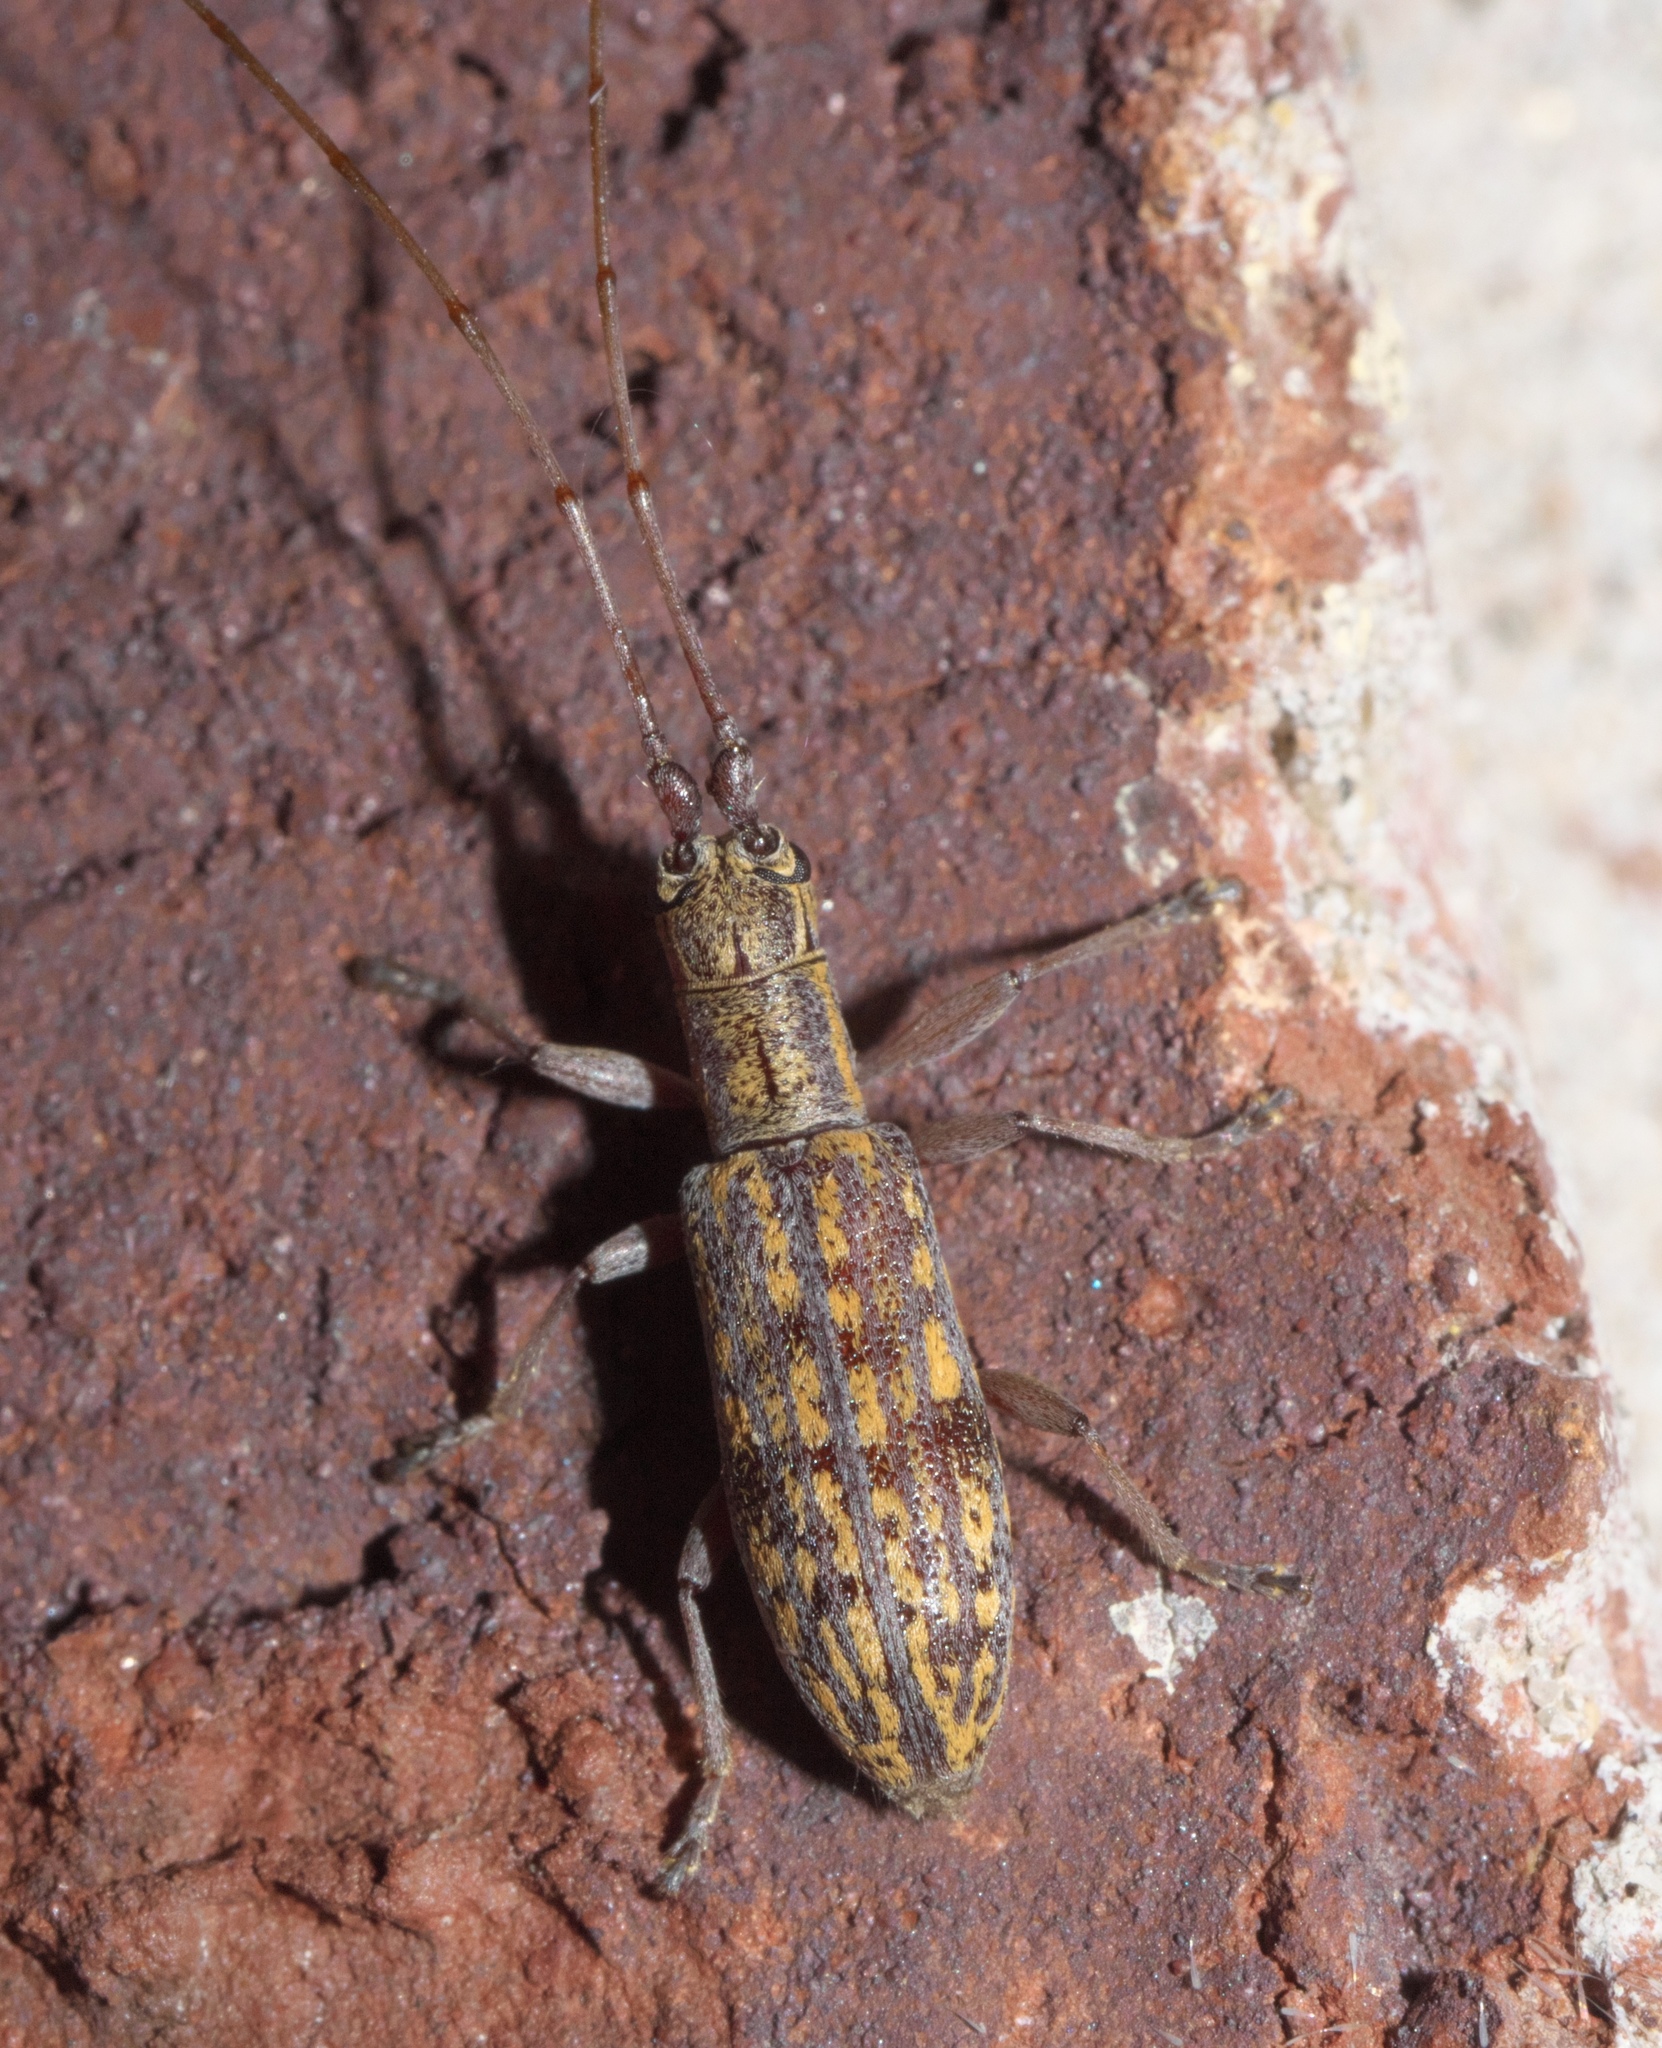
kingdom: Animalia
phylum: Arthropoda
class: Insecta
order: Coleoptera
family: Cerambycidae
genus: Dorcaschema
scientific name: Dorcaschema alternatum
